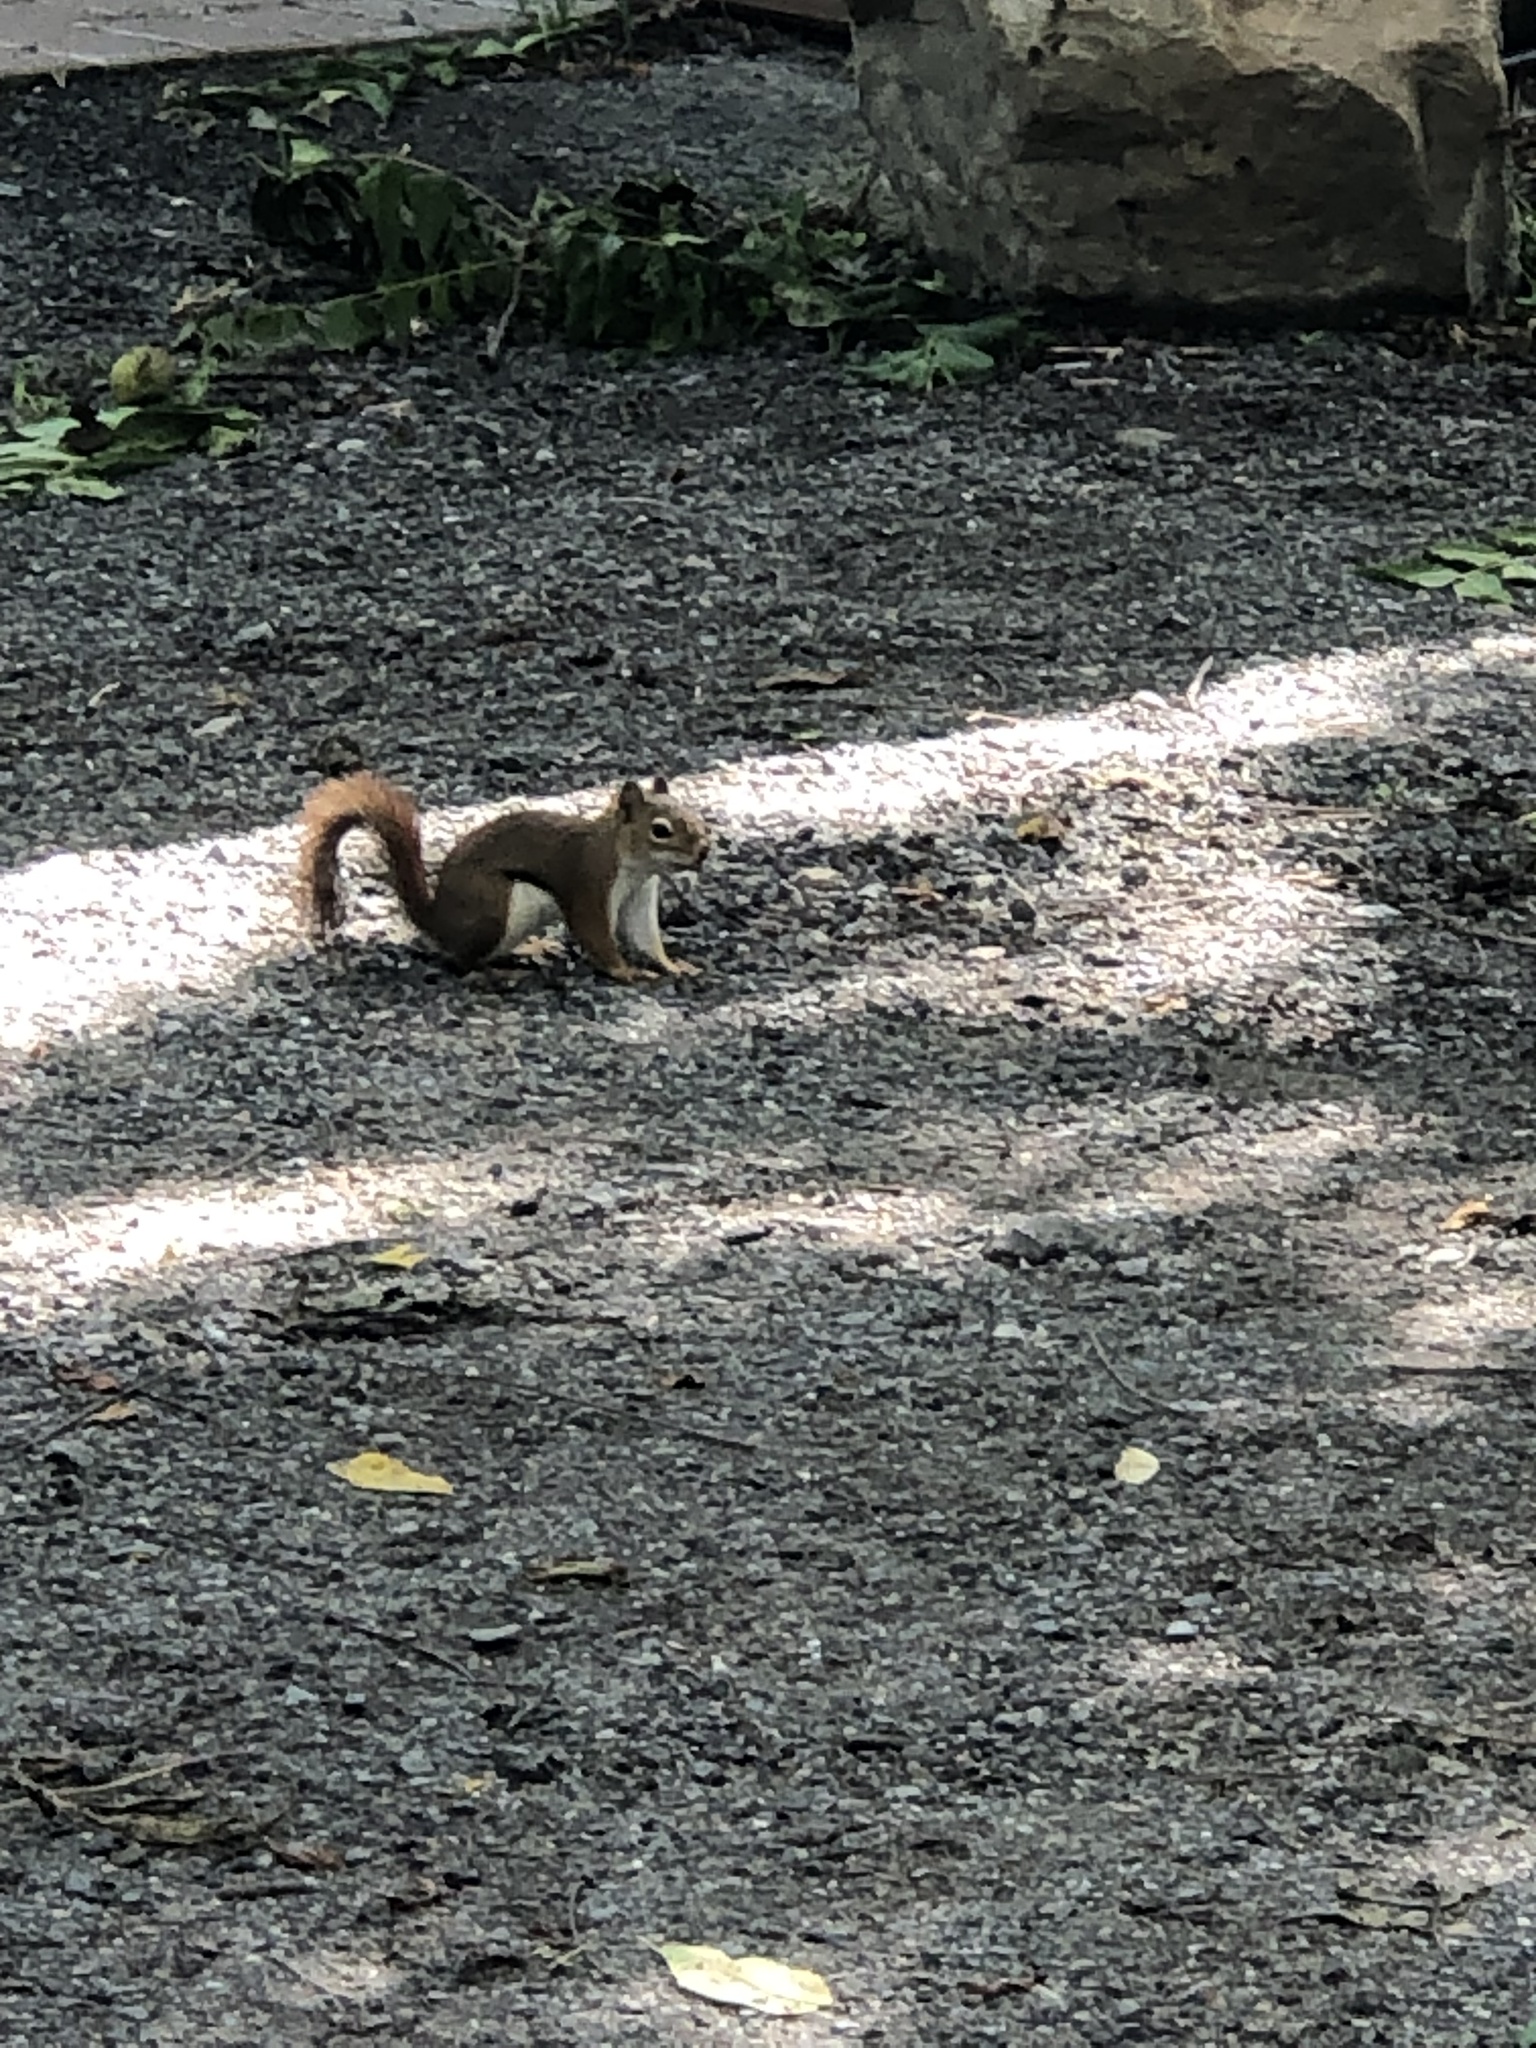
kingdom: Animalia
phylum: Chordata
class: Mammalia
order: Rodentia
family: Sciuridae
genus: Tamiasciurus
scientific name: Tamiasciurus hudsonicus
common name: Red squirrel
